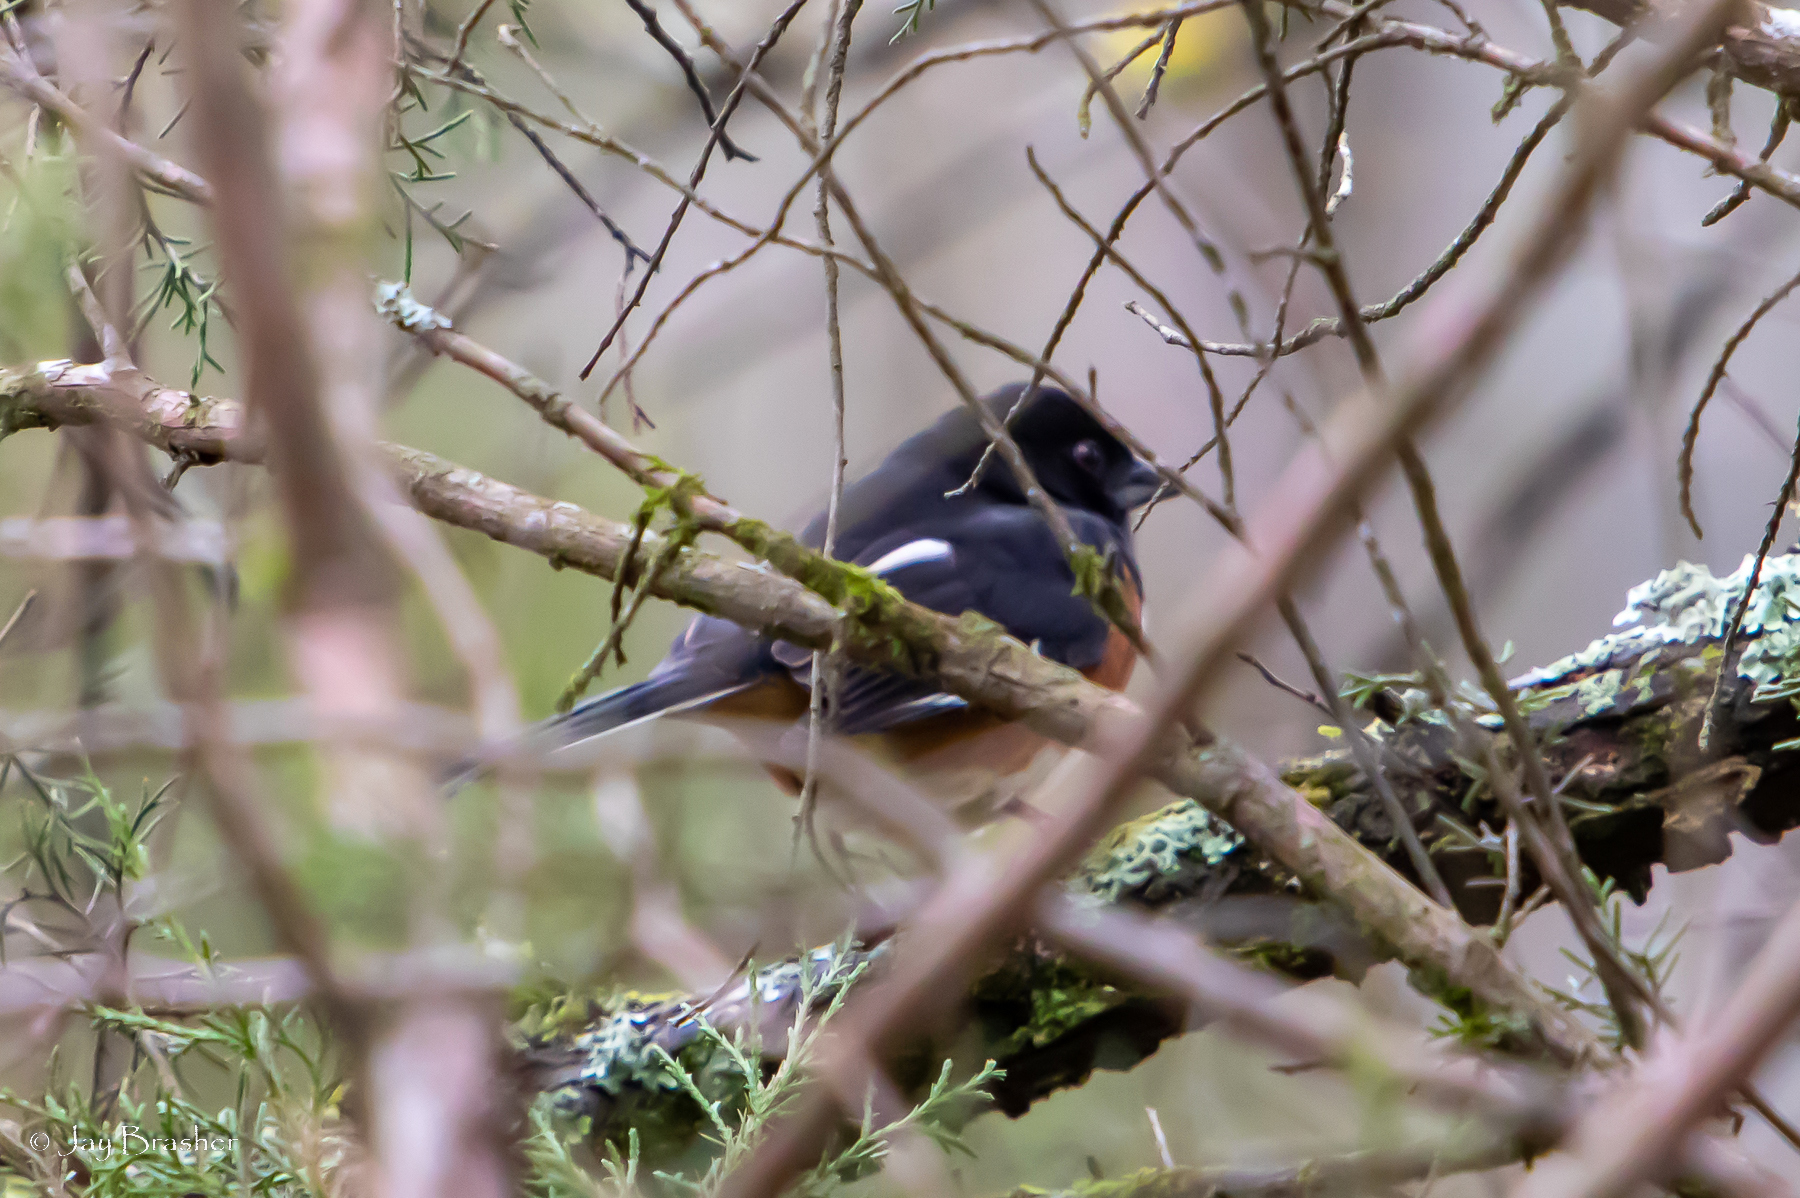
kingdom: Animalia
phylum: Chordata
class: Aves
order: Passeriformes
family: Passerellidae
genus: Pipilo
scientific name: Pipilo erythrophthalmus
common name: Eastern towhee
